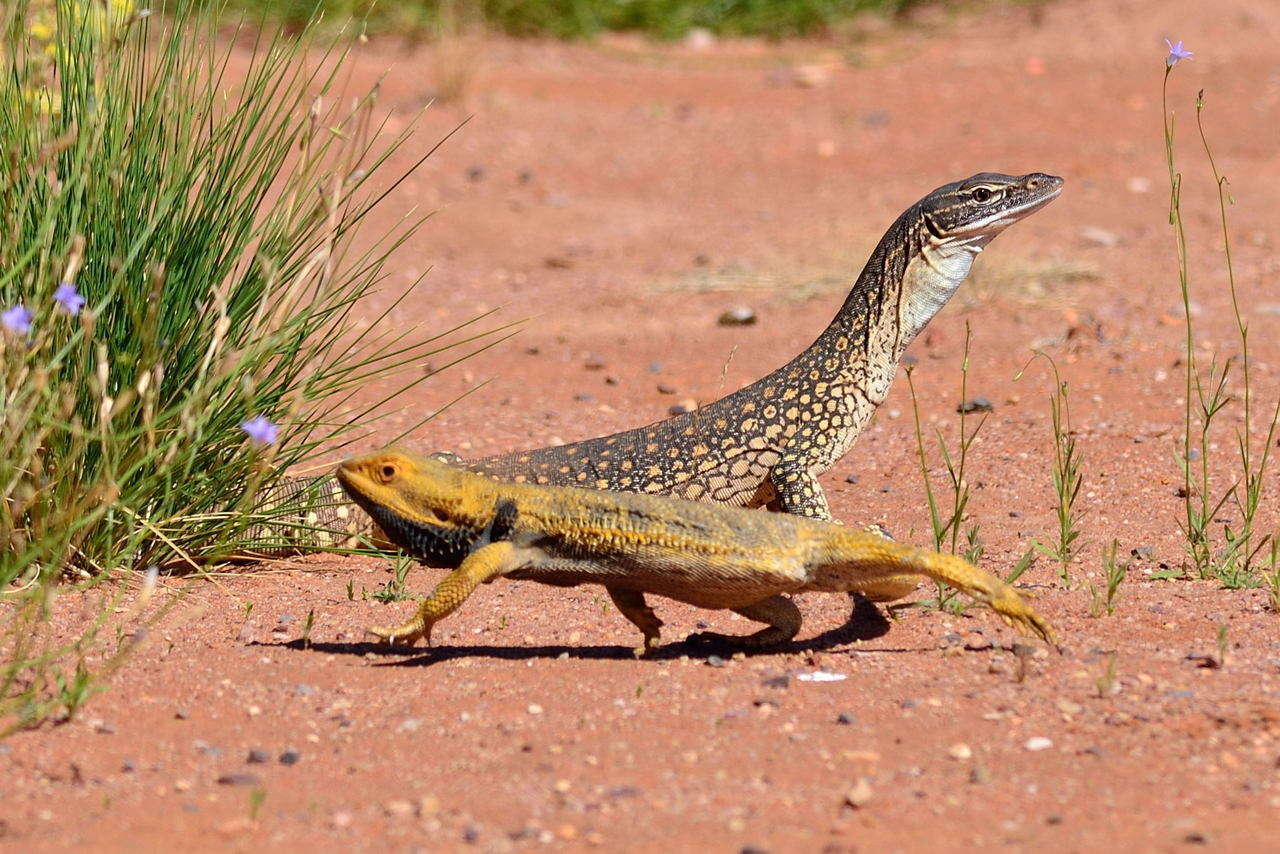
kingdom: Animalia
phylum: Chordata
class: Squamata
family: Agamidae
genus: Pogona
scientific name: Pogona vitticeps
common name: Central bearded dragon
